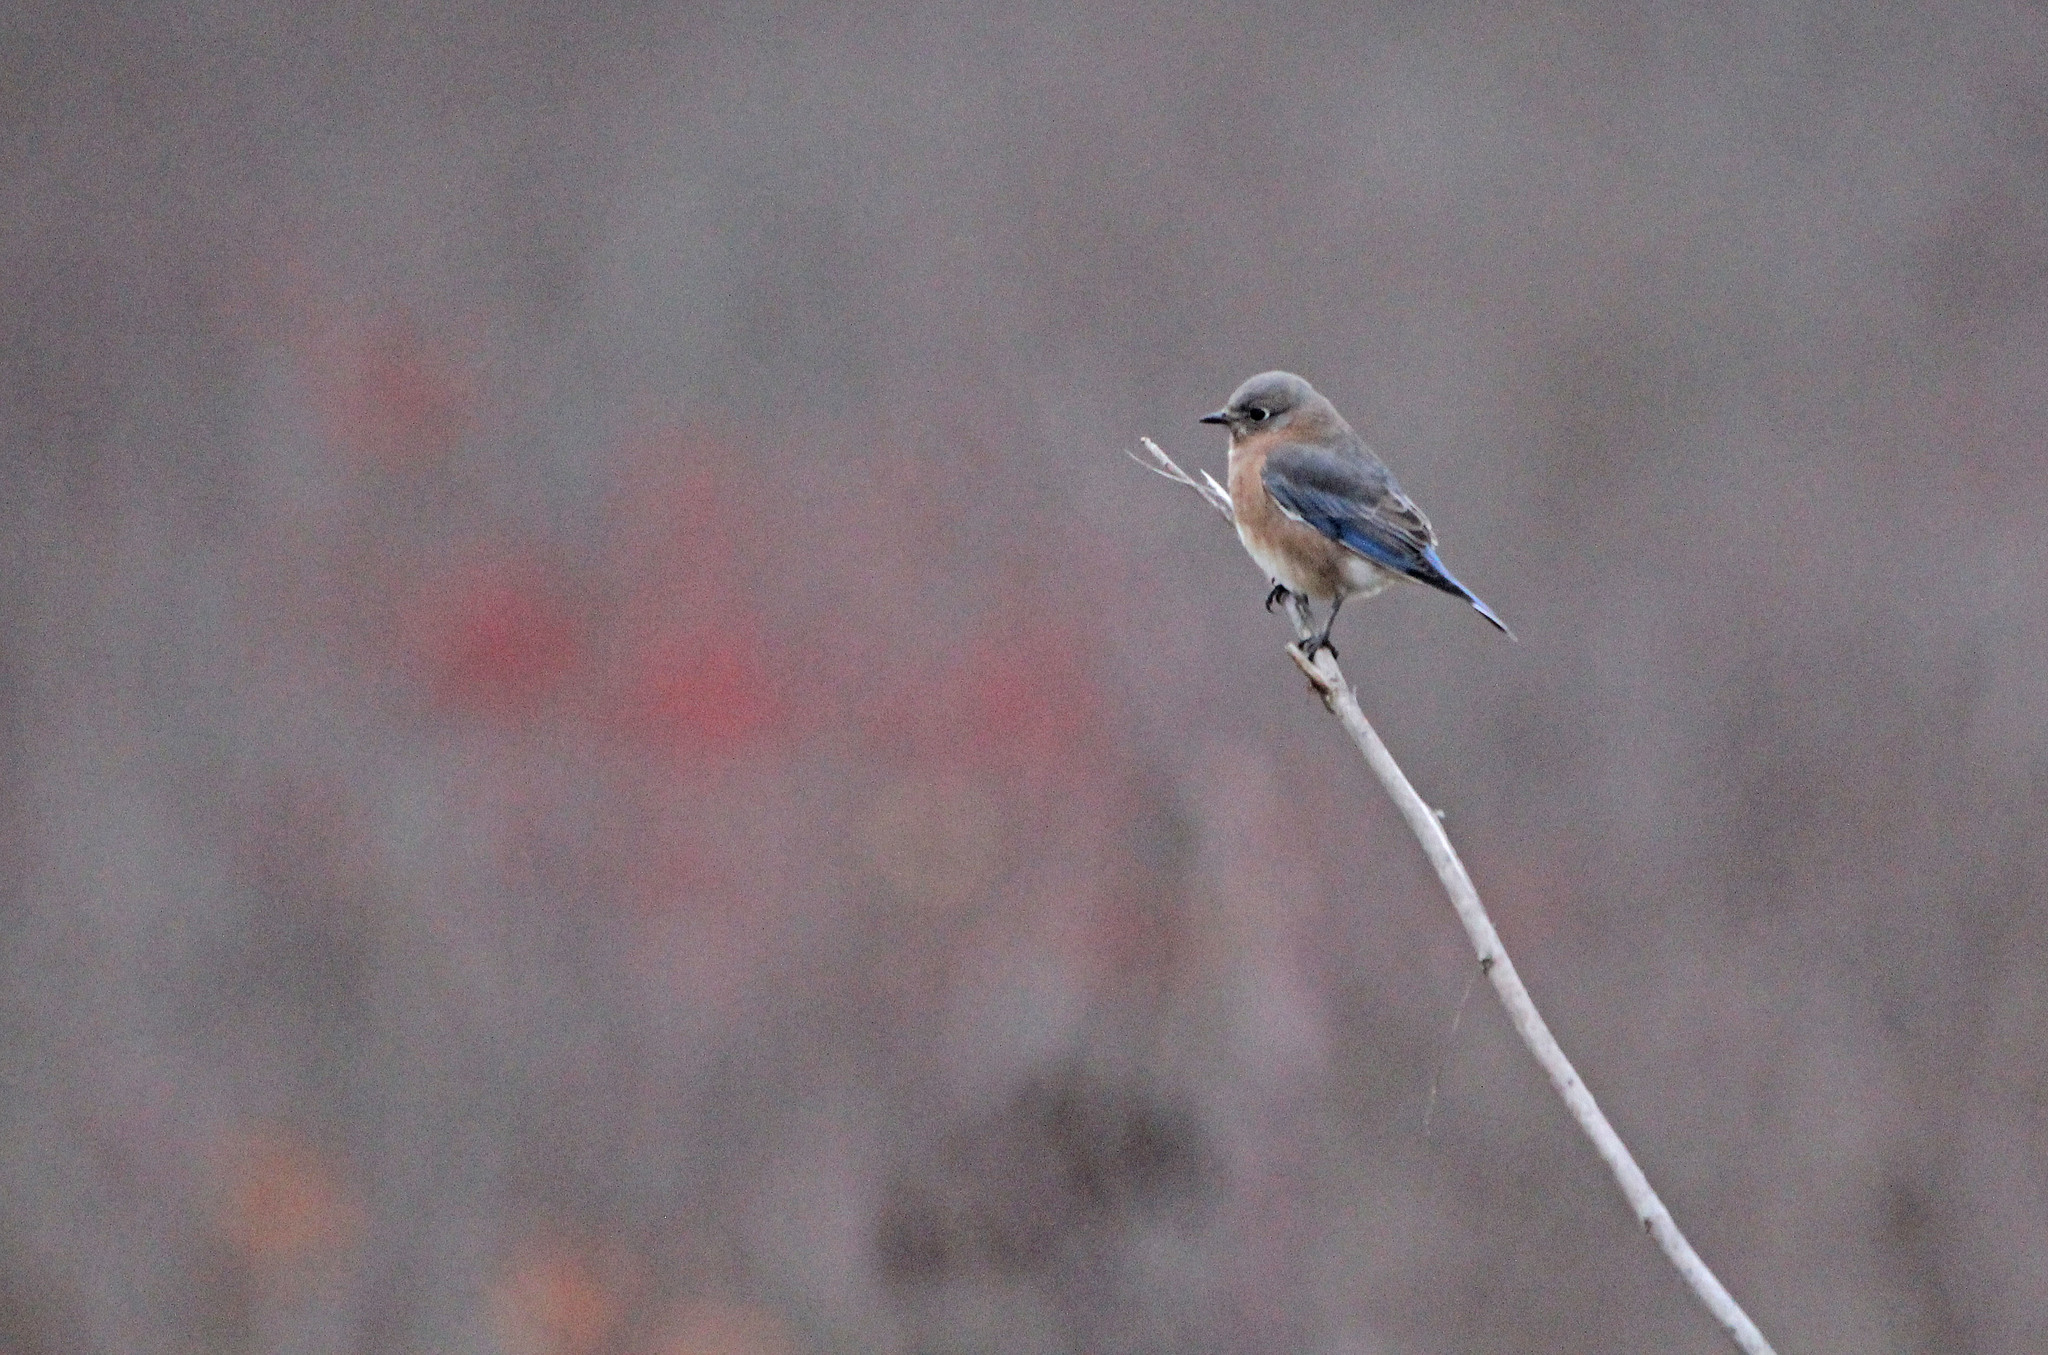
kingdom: Animalia
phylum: Chordata
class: Aves
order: Passeriformes
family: Turdidae
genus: Sialia
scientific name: Sialia sialis
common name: Eastern bluebird
